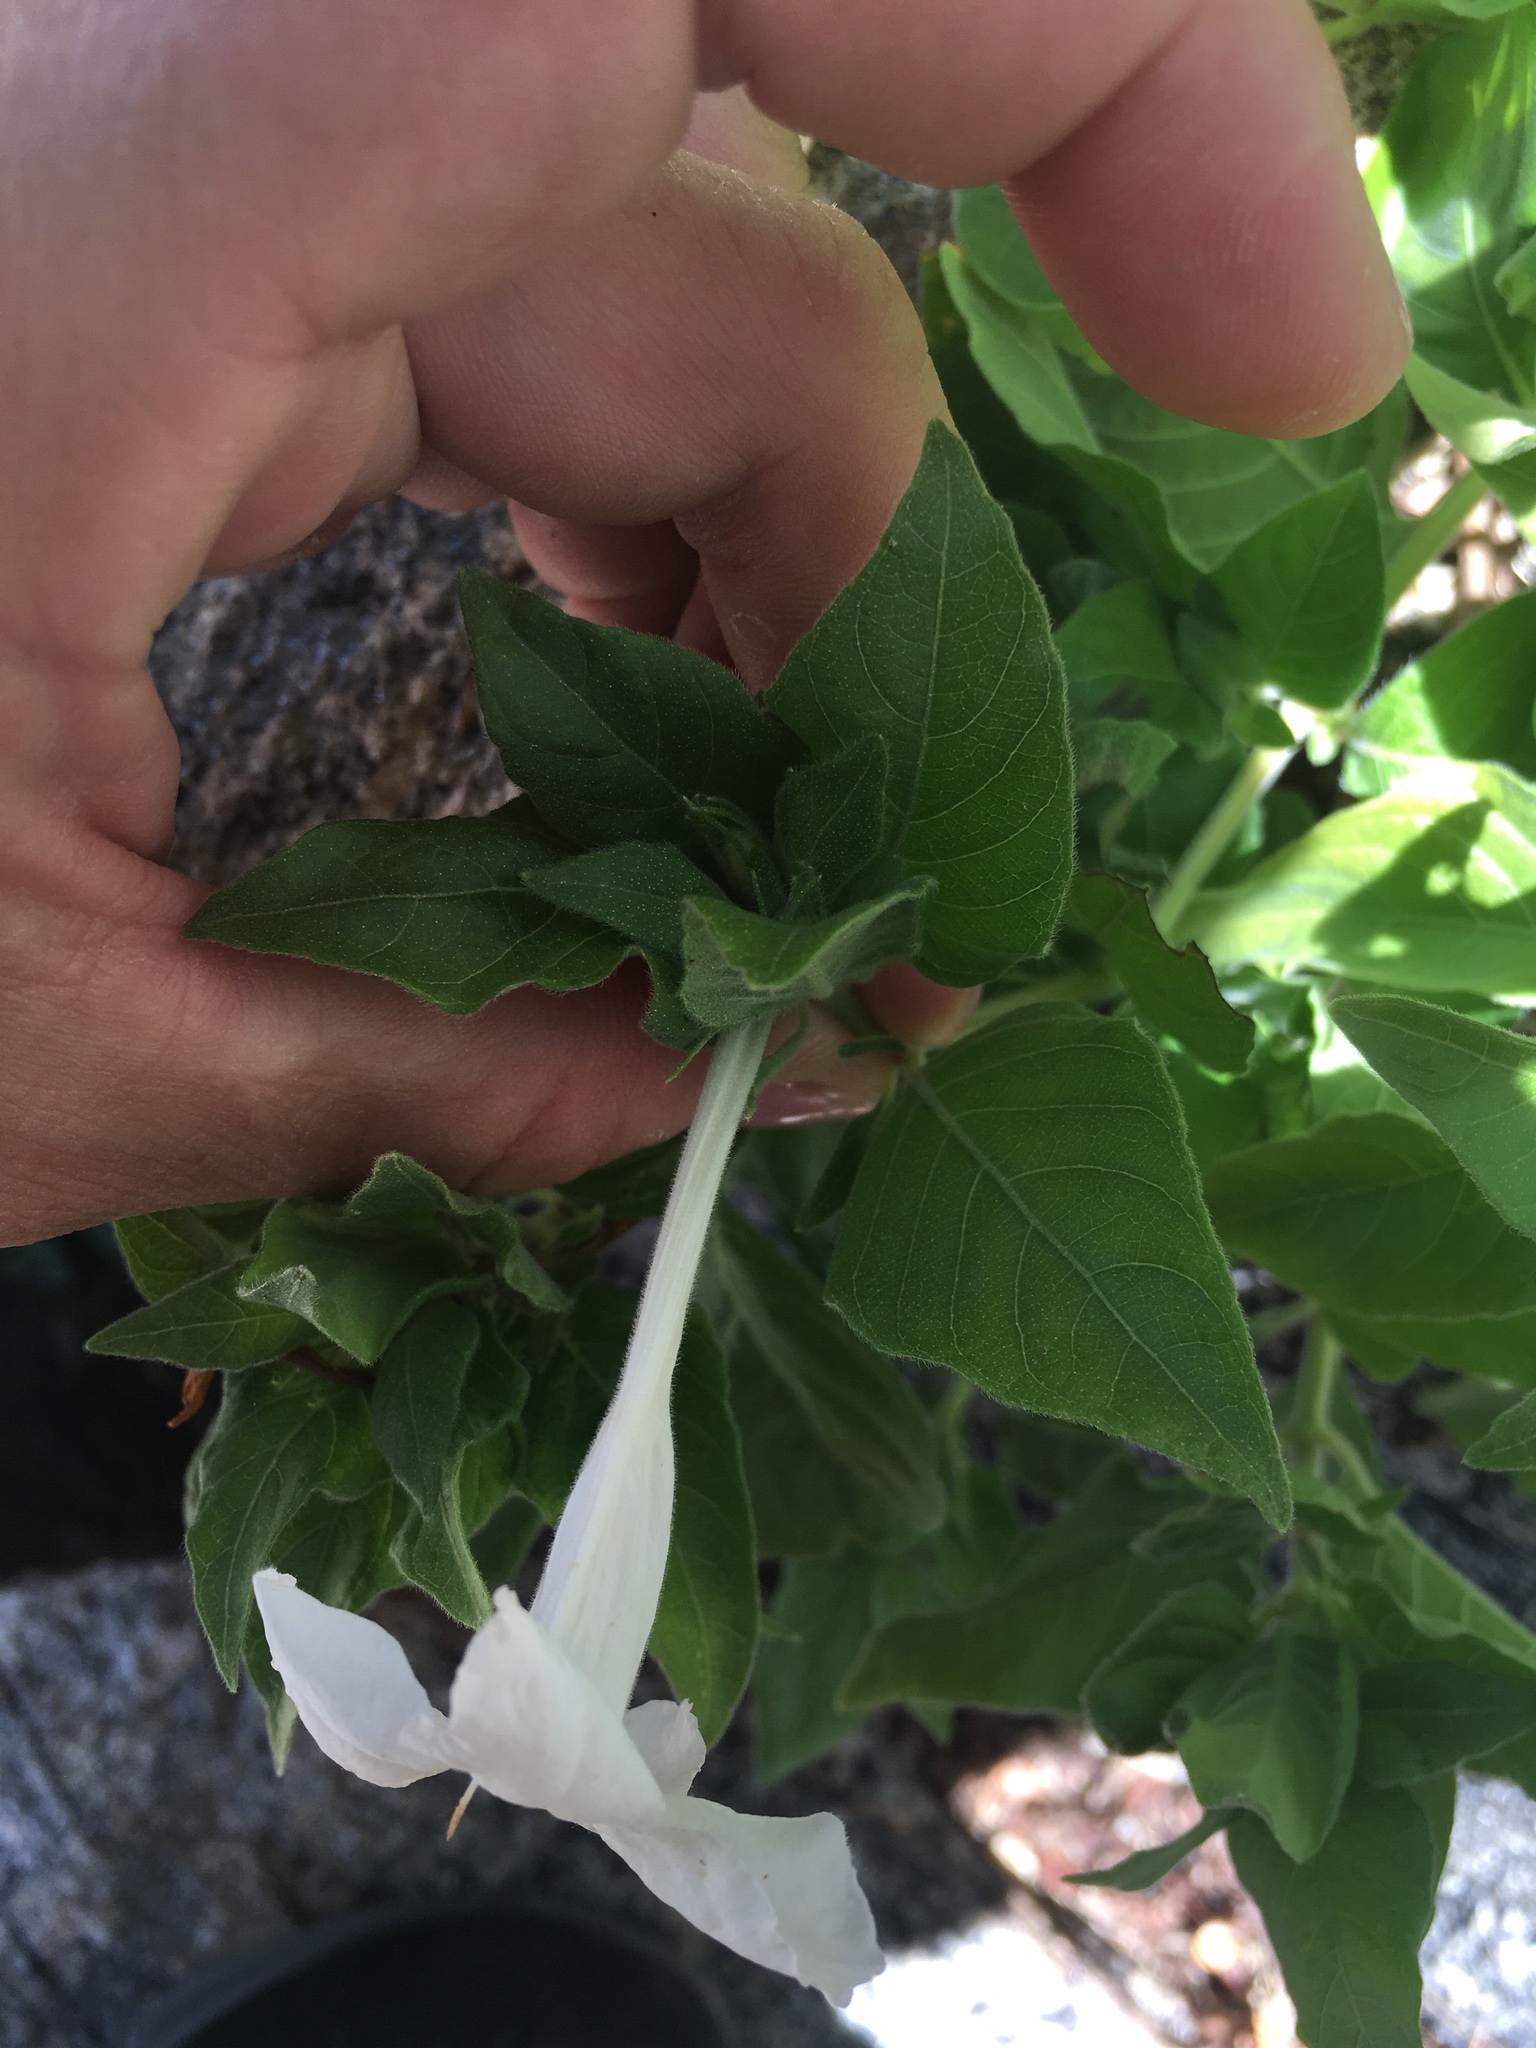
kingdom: Plantae
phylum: Tracheophyta
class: Magnoliopsida
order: Lamiales
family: Acanthaceae
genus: Ruellia
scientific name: Ruellia leucantha
